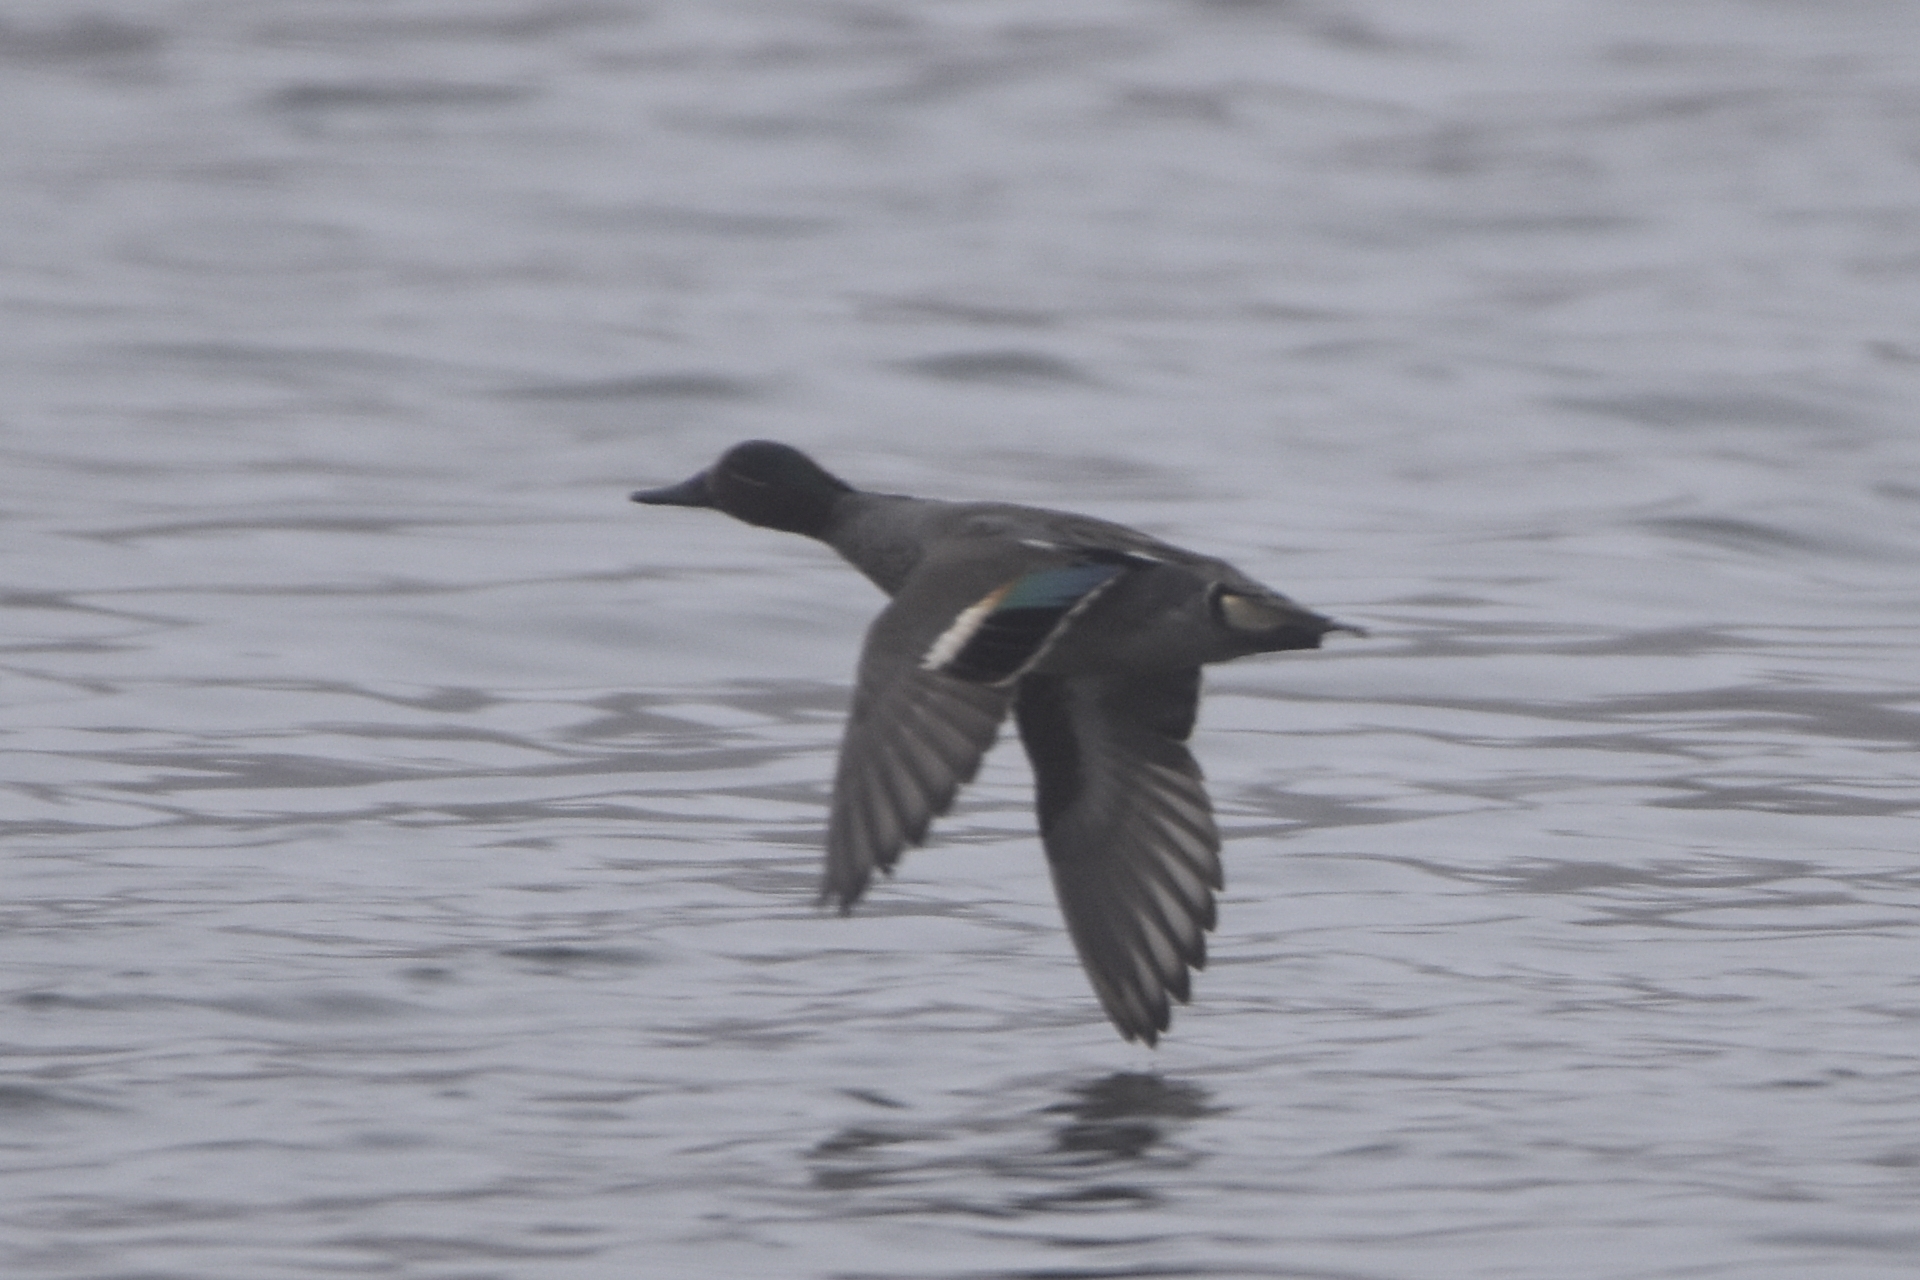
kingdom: Animalia
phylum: Chordata
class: Aves
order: Anseriformes
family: Anatidae
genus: Anas
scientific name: Anas crecca
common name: Eurasian teal
